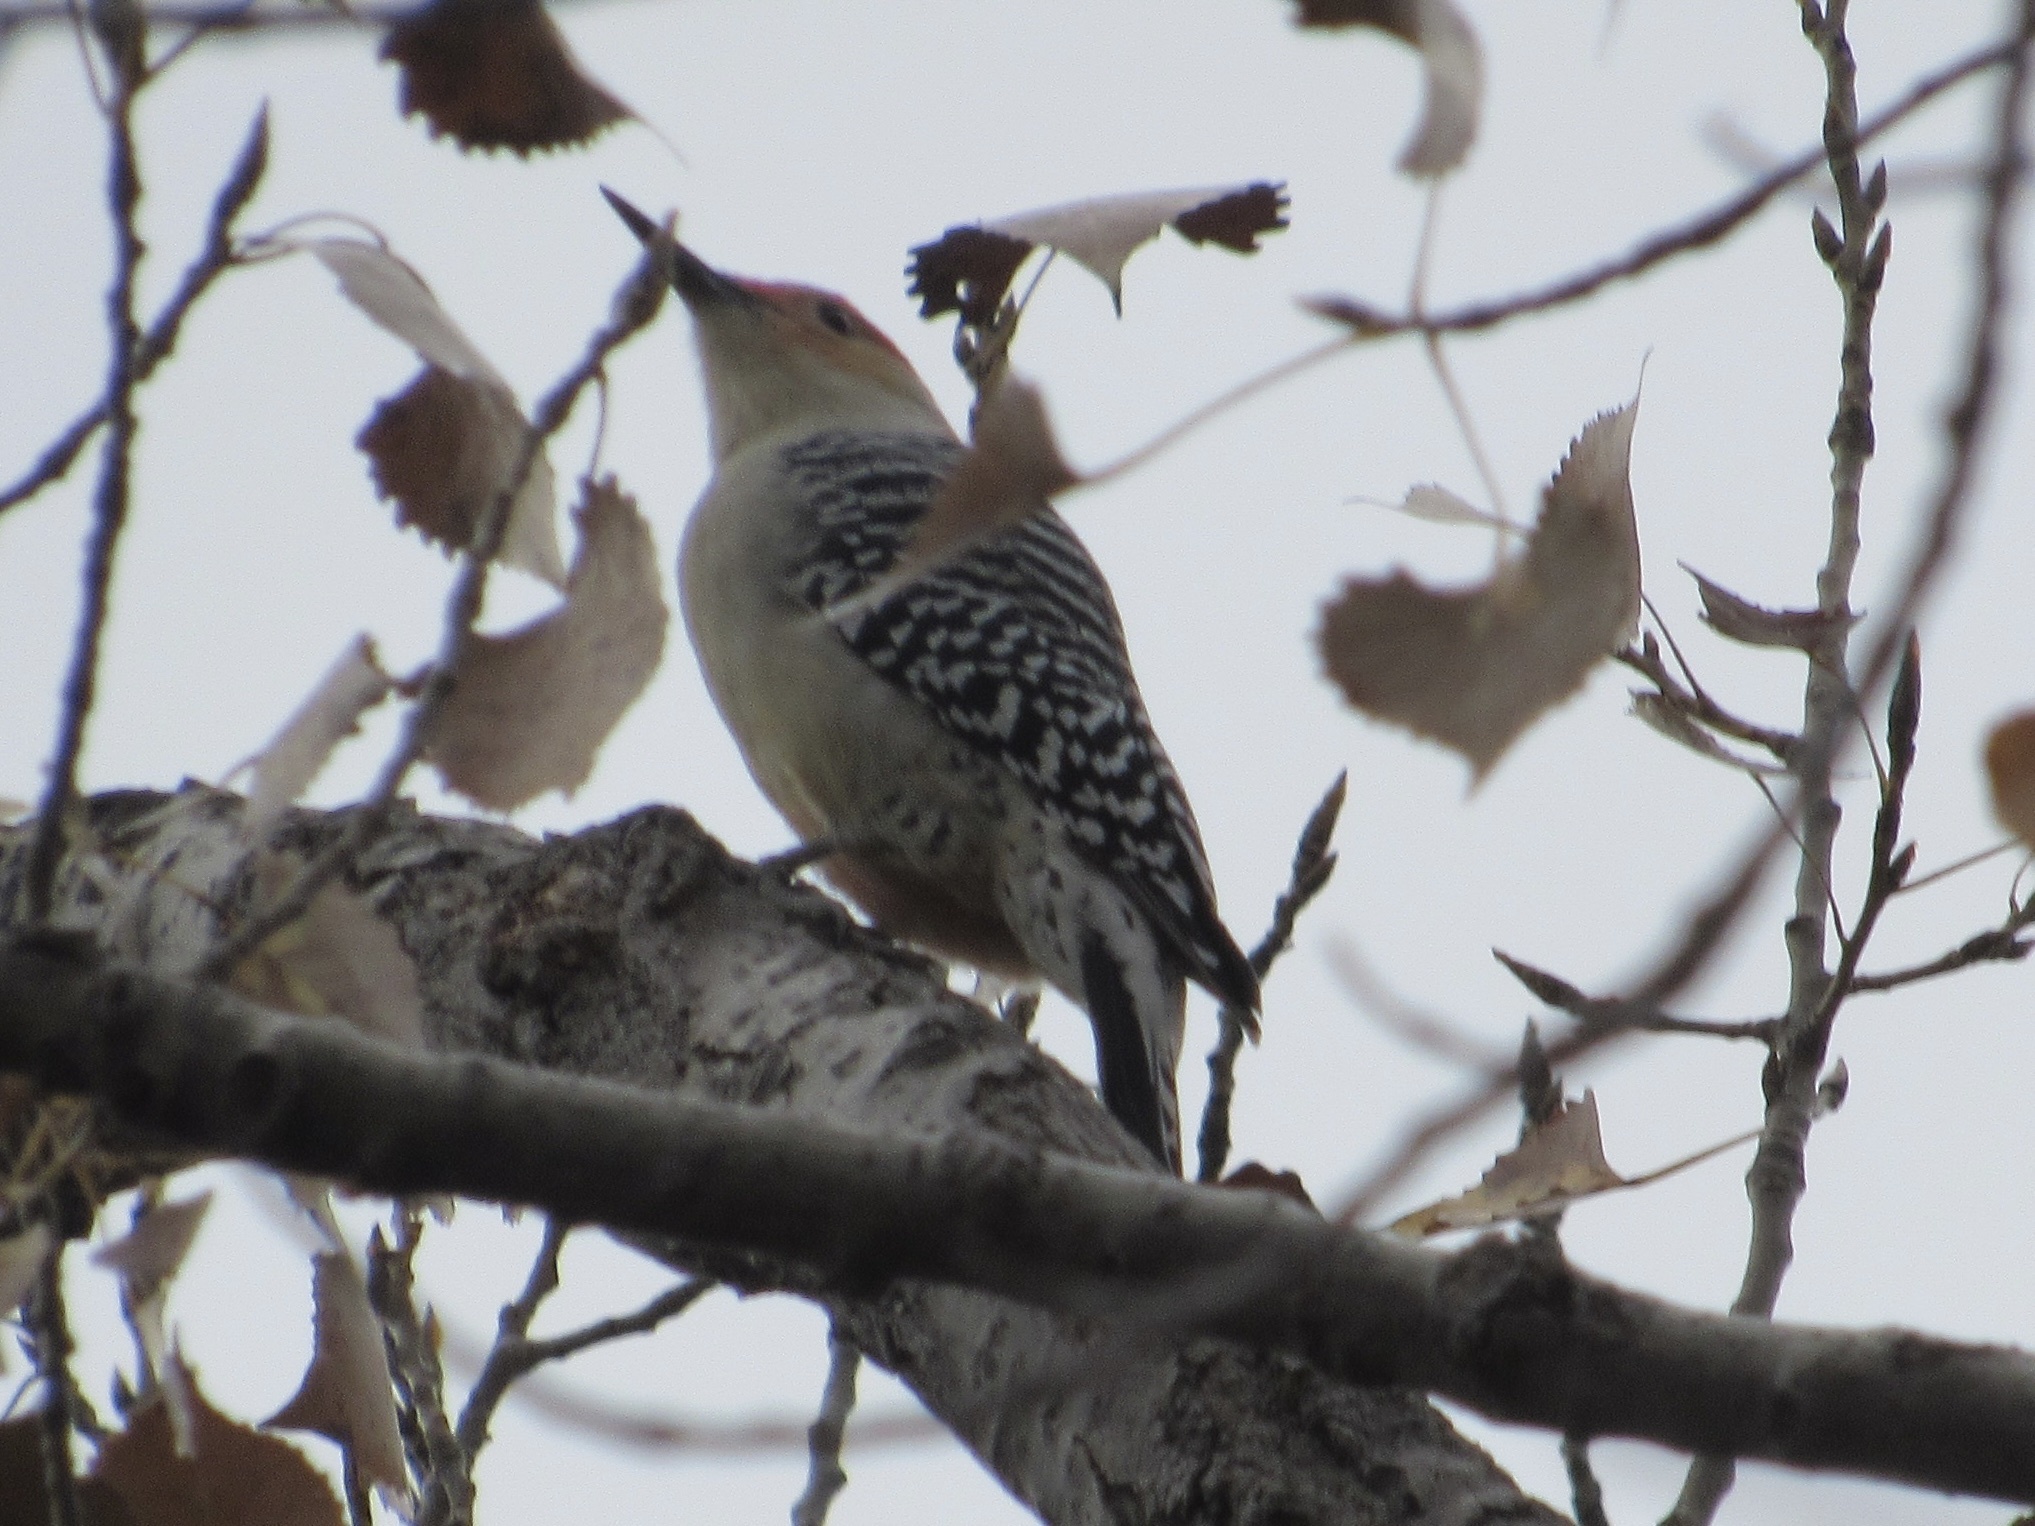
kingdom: Animalia
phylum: Chordata
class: Aves
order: Piciformes
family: Picidae
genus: Melanerpes
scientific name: Melanerpes carolinus
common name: Red-bellied woodpecker
